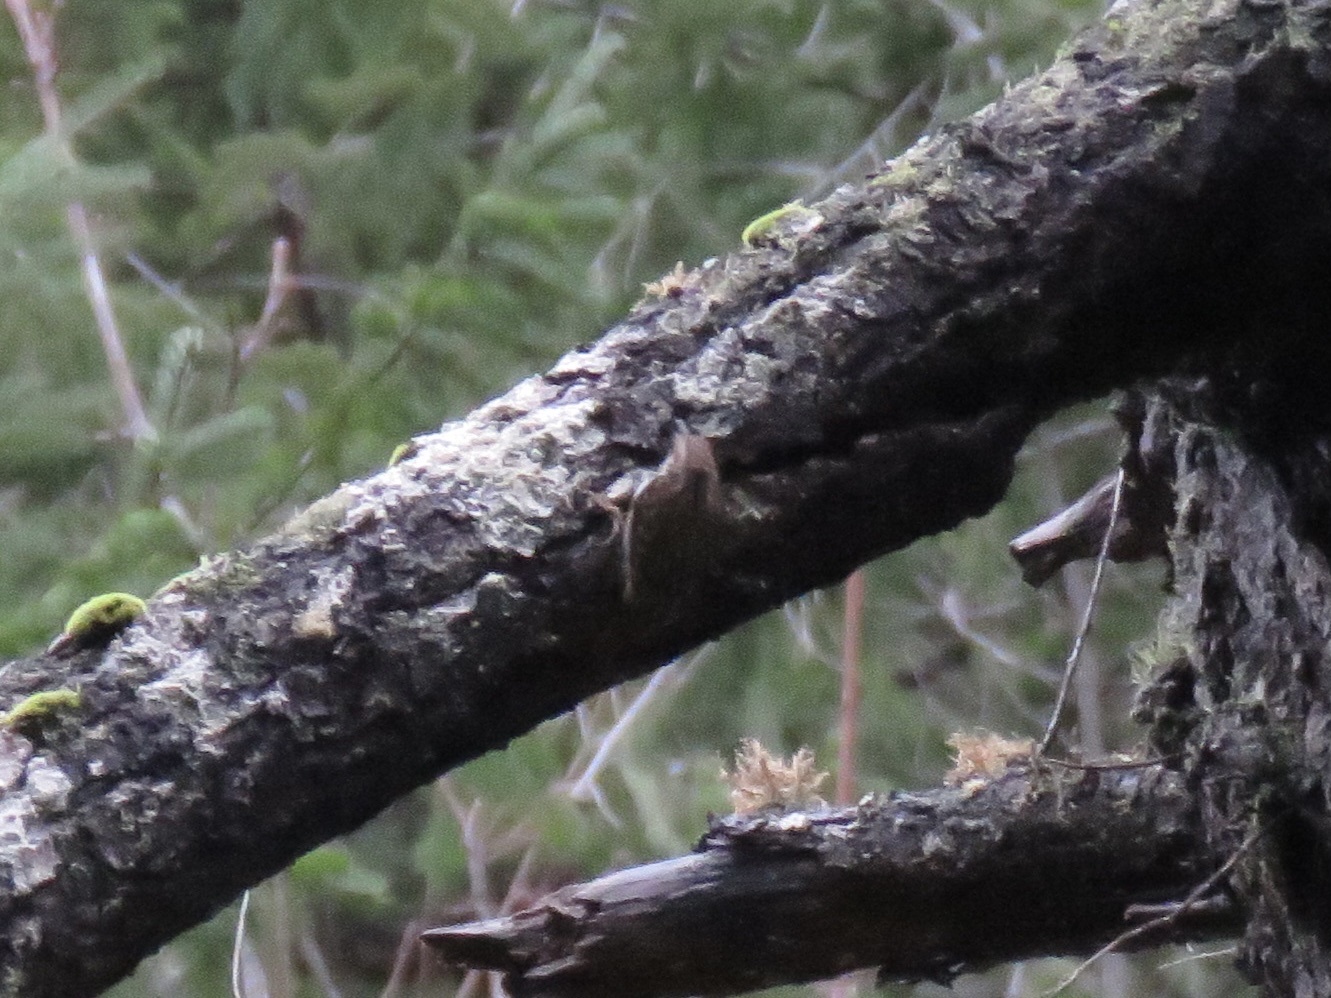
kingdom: Animalia
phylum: Chordata
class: Aves
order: Passeriformes
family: Certhiidae
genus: Certhia
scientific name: Certhia americana
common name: Brown creeper
